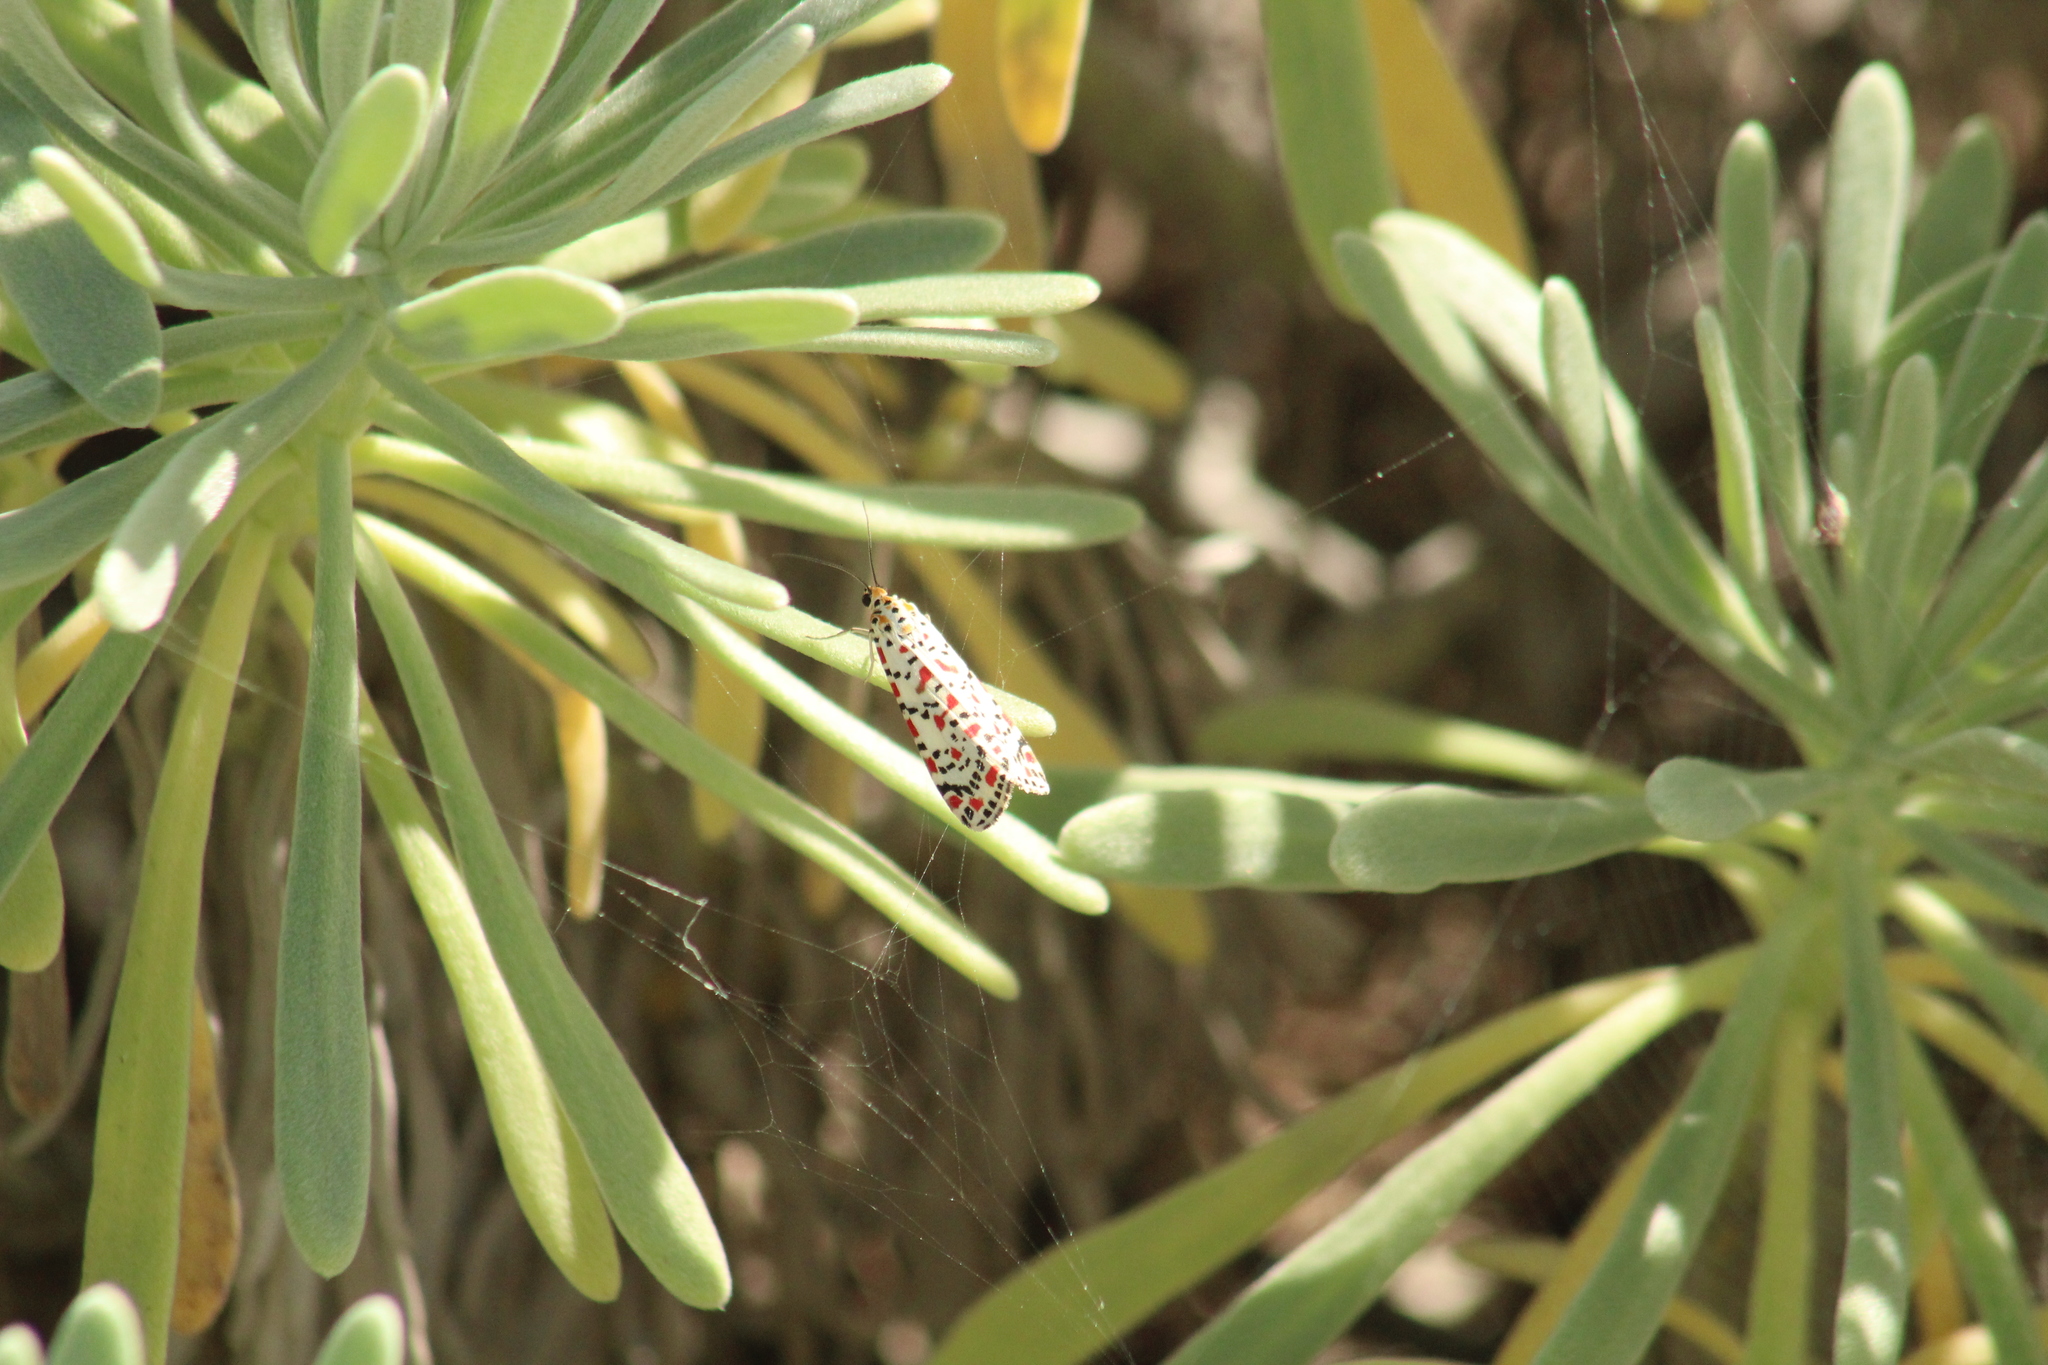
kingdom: Animalia
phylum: Arthropoda
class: Insecta
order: Lepidoptera
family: Erebidae
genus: Utetheisa
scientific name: Utetheisa pulchella
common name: Crimson speckled
